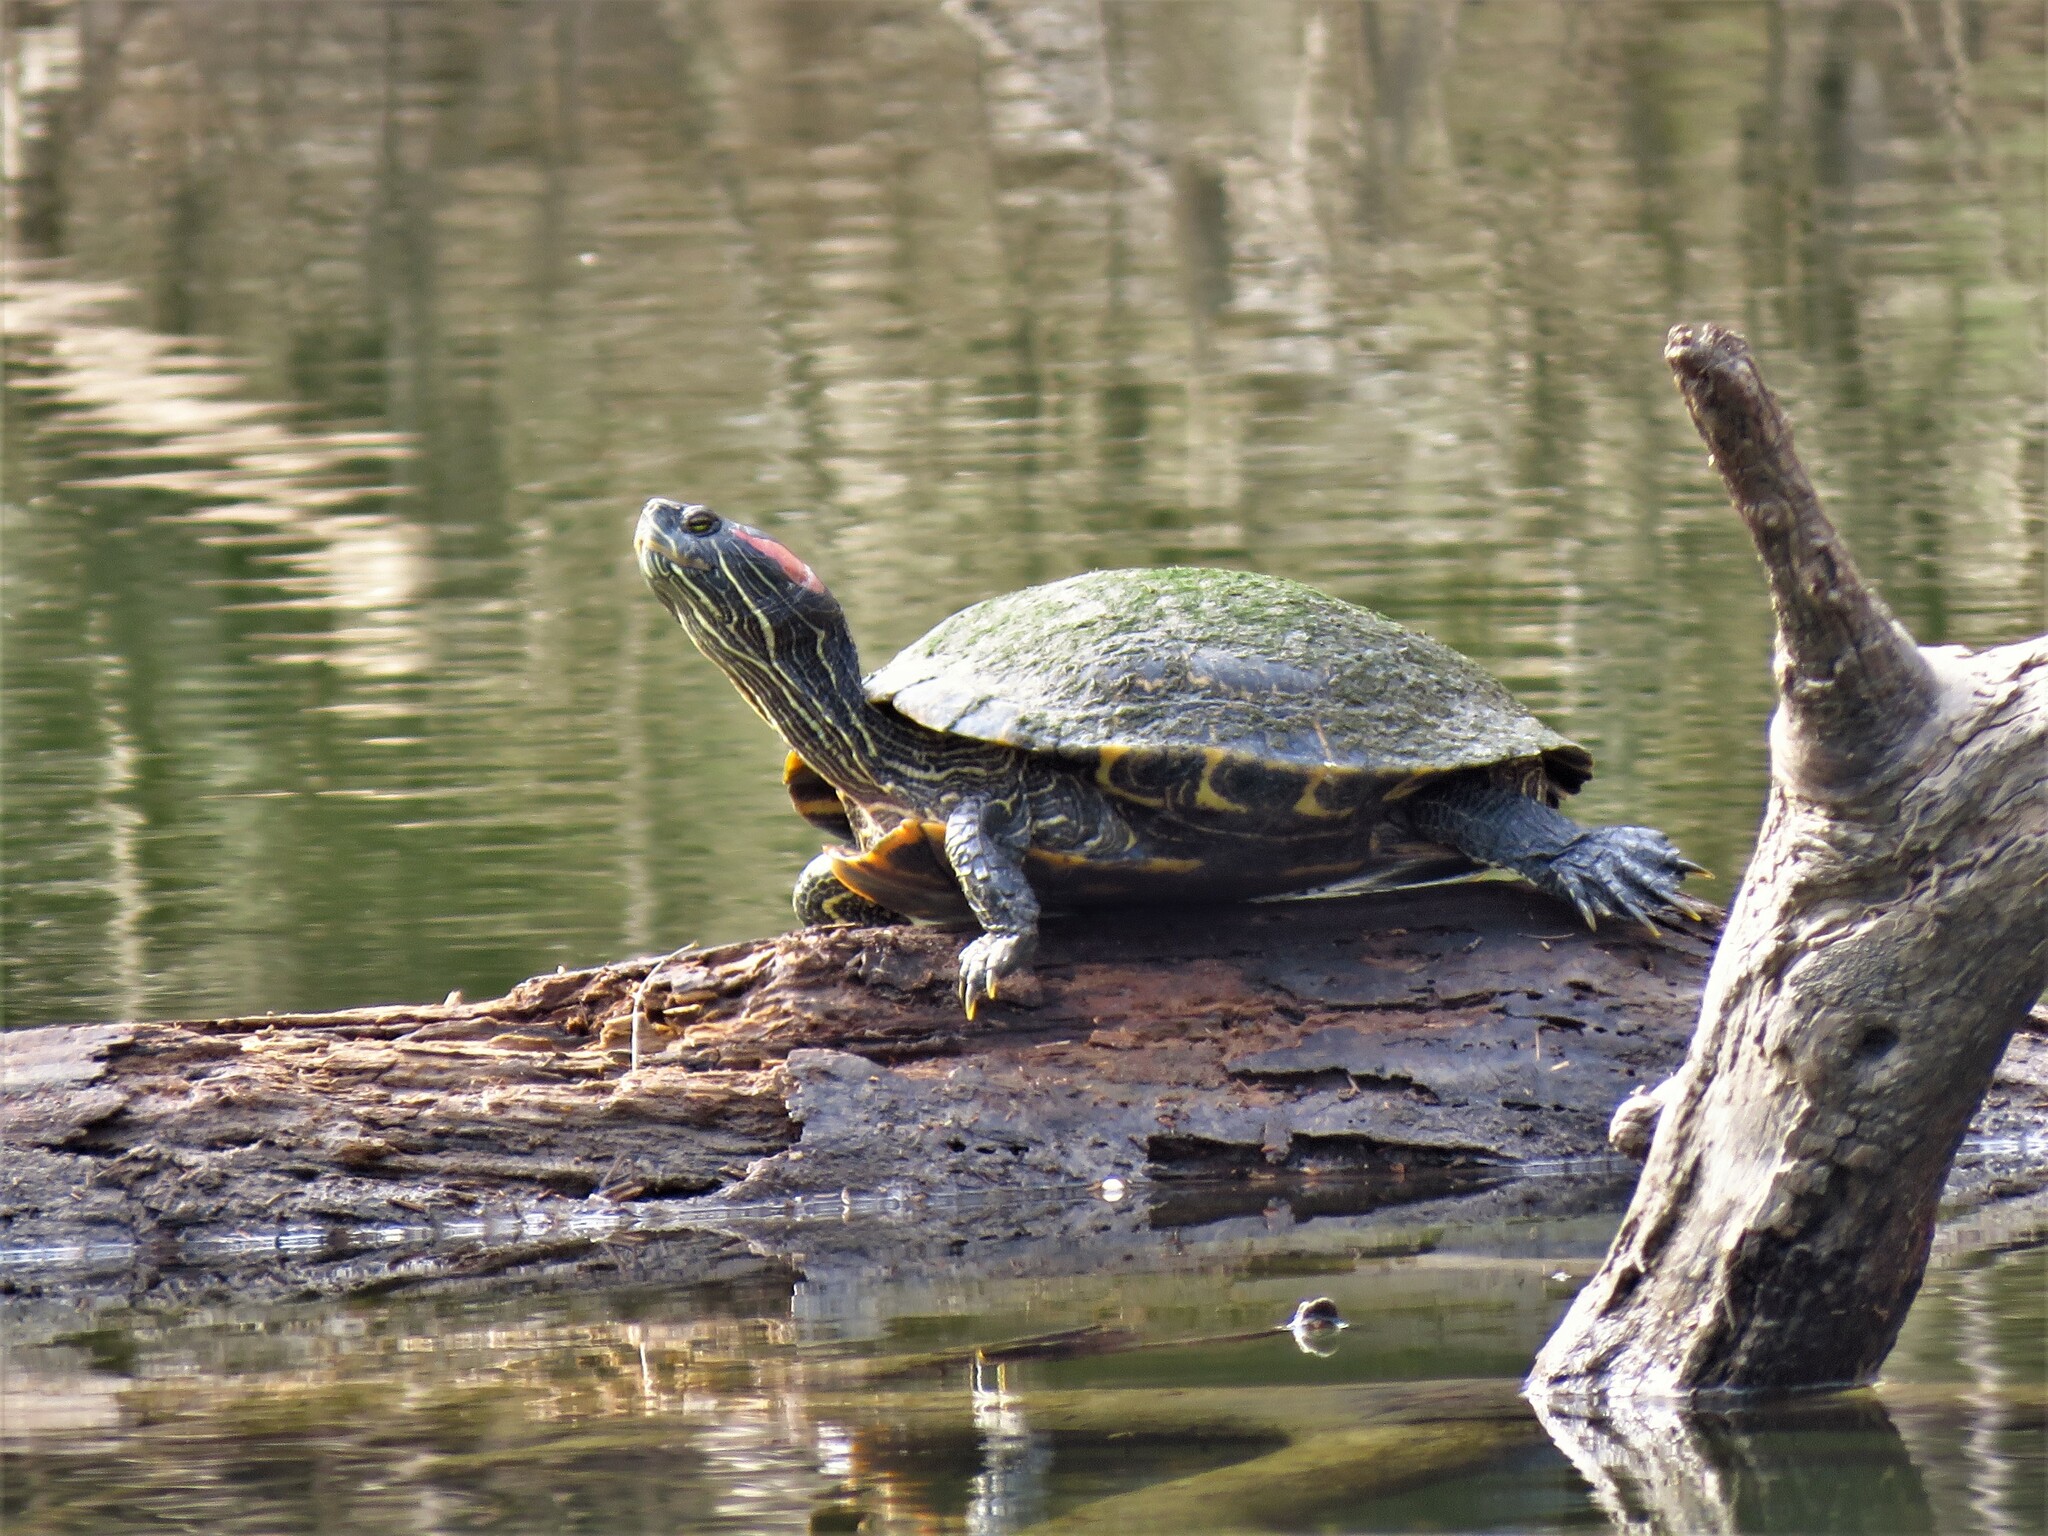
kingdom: Animalia
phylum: Chordata
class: Testudines
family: Emydidae
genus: Trachemys
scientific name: Trachemys scripta
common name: Slider
